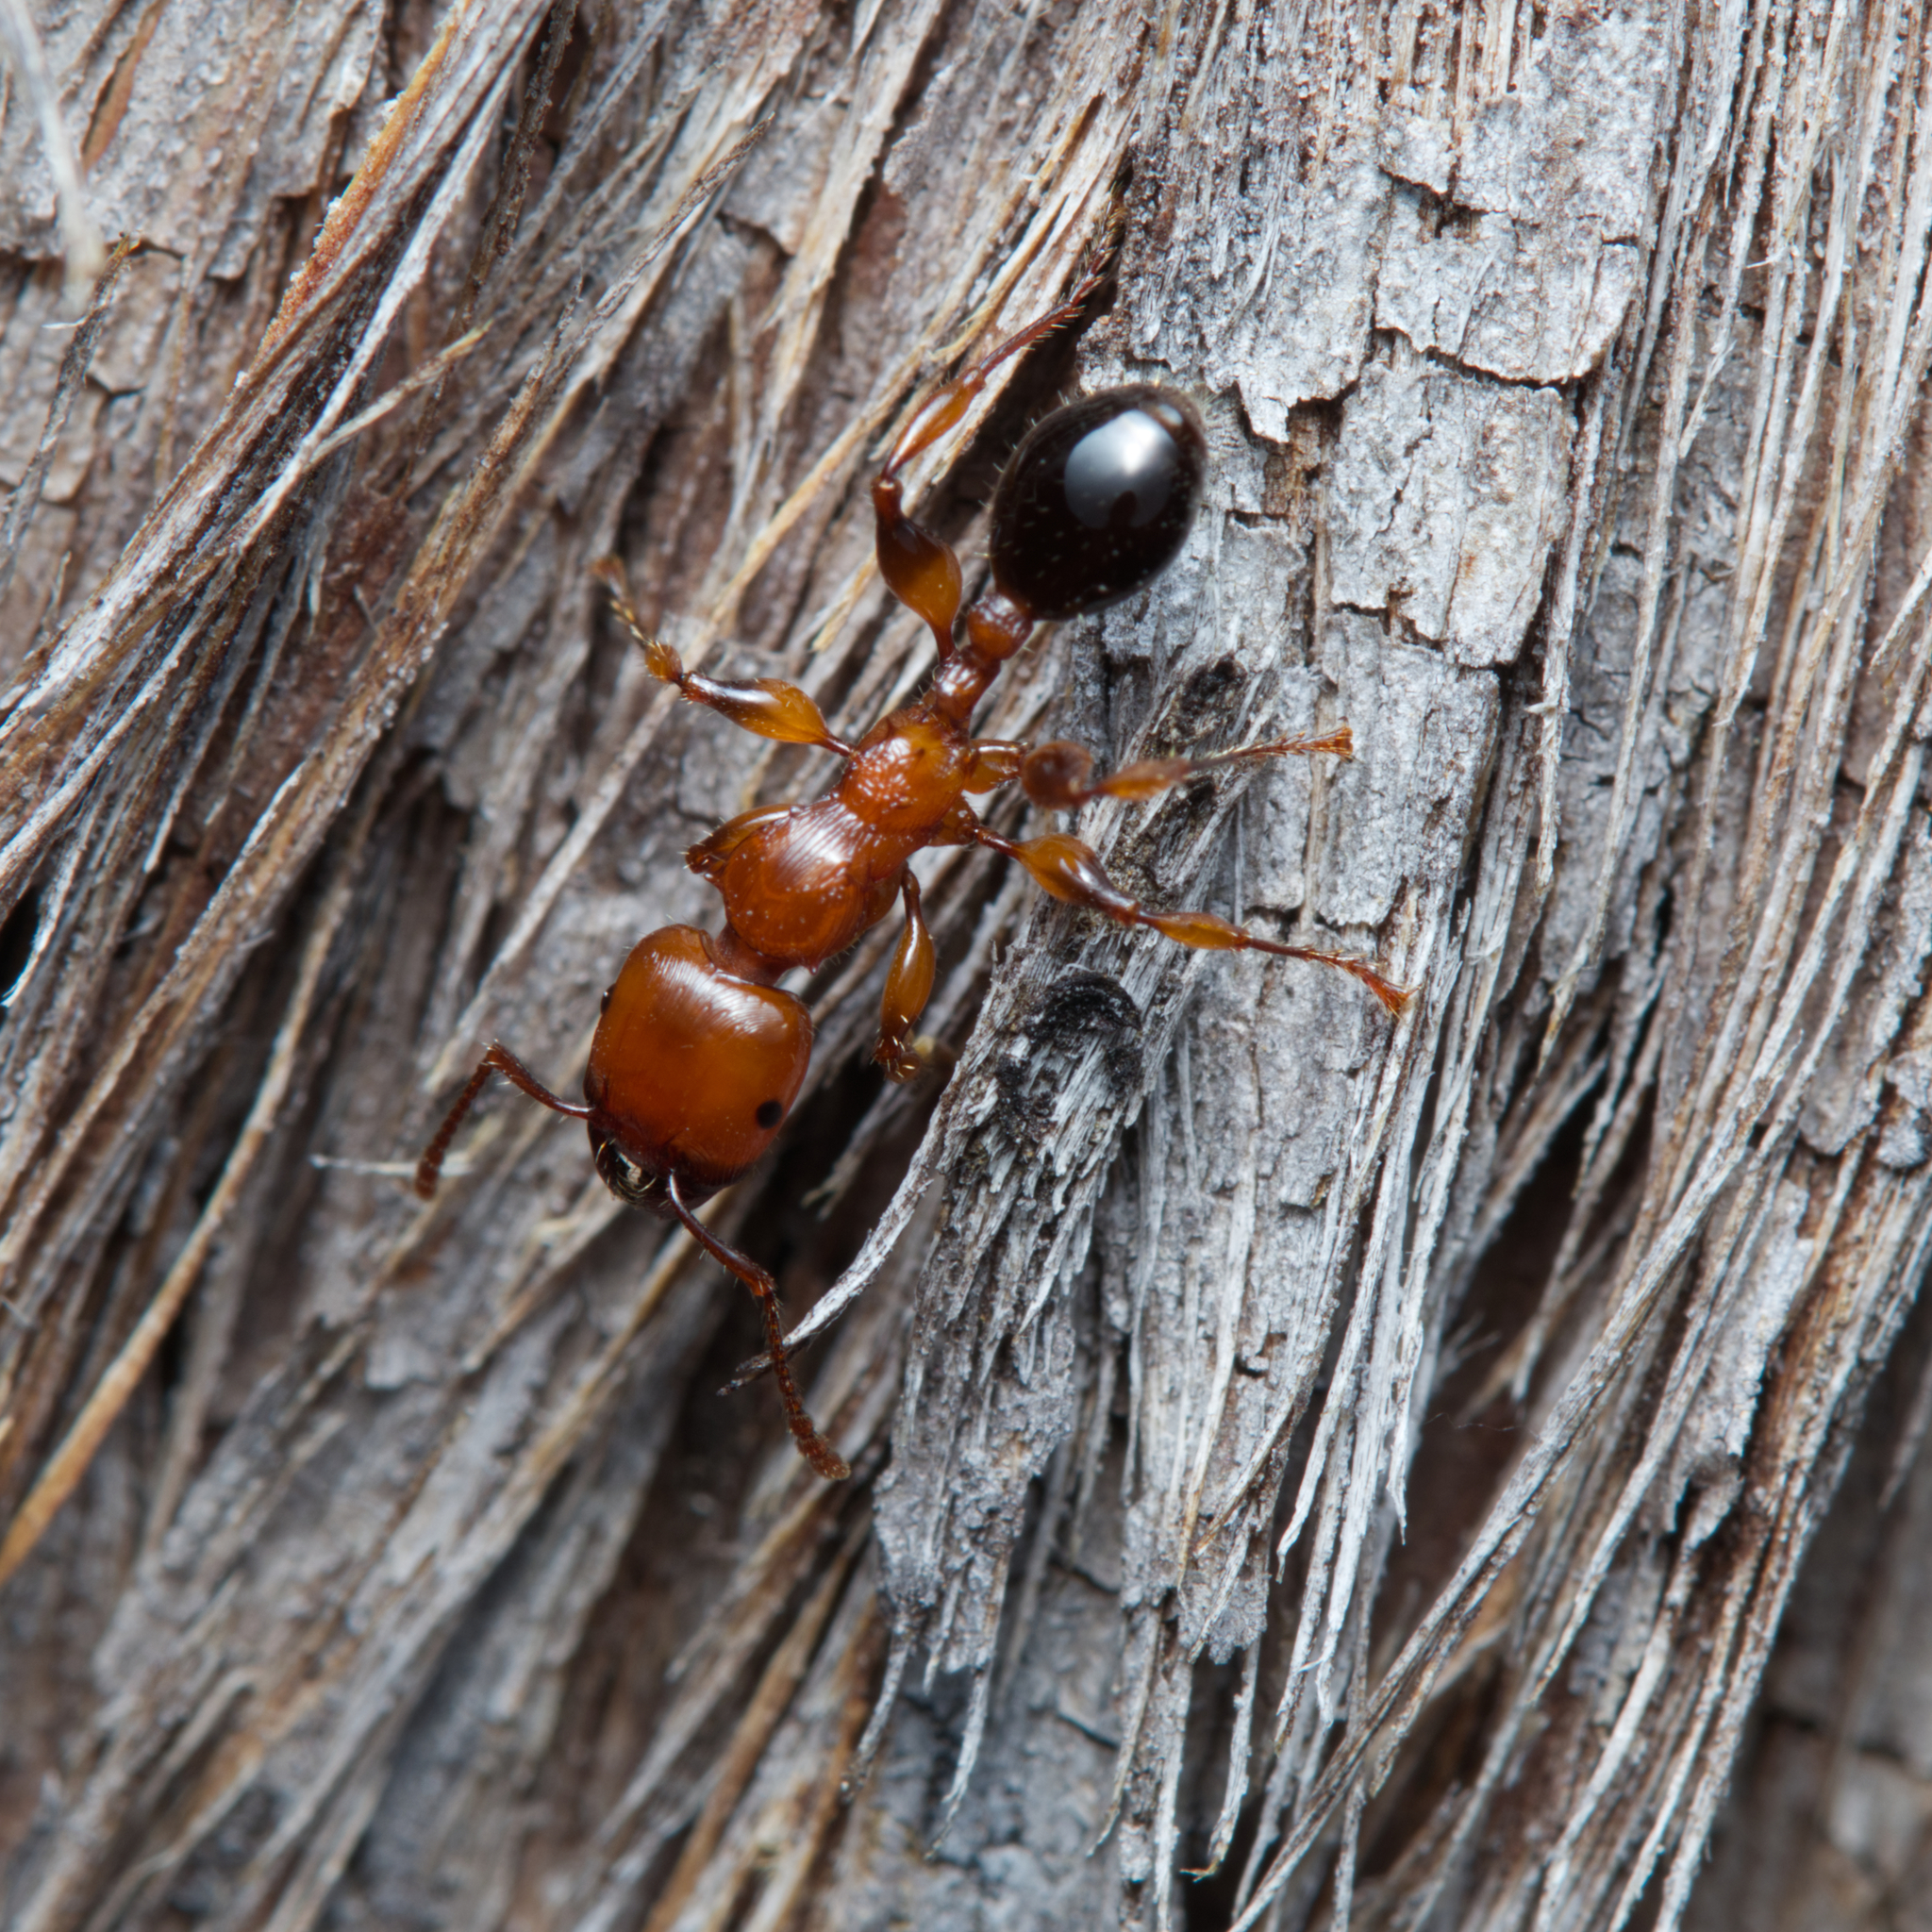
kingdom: Animalia
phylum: Arthropoda
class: Insecta
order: Hymenoptera
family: Formicidae
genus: Podomyrma
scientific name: Podomyrma gratiosa
